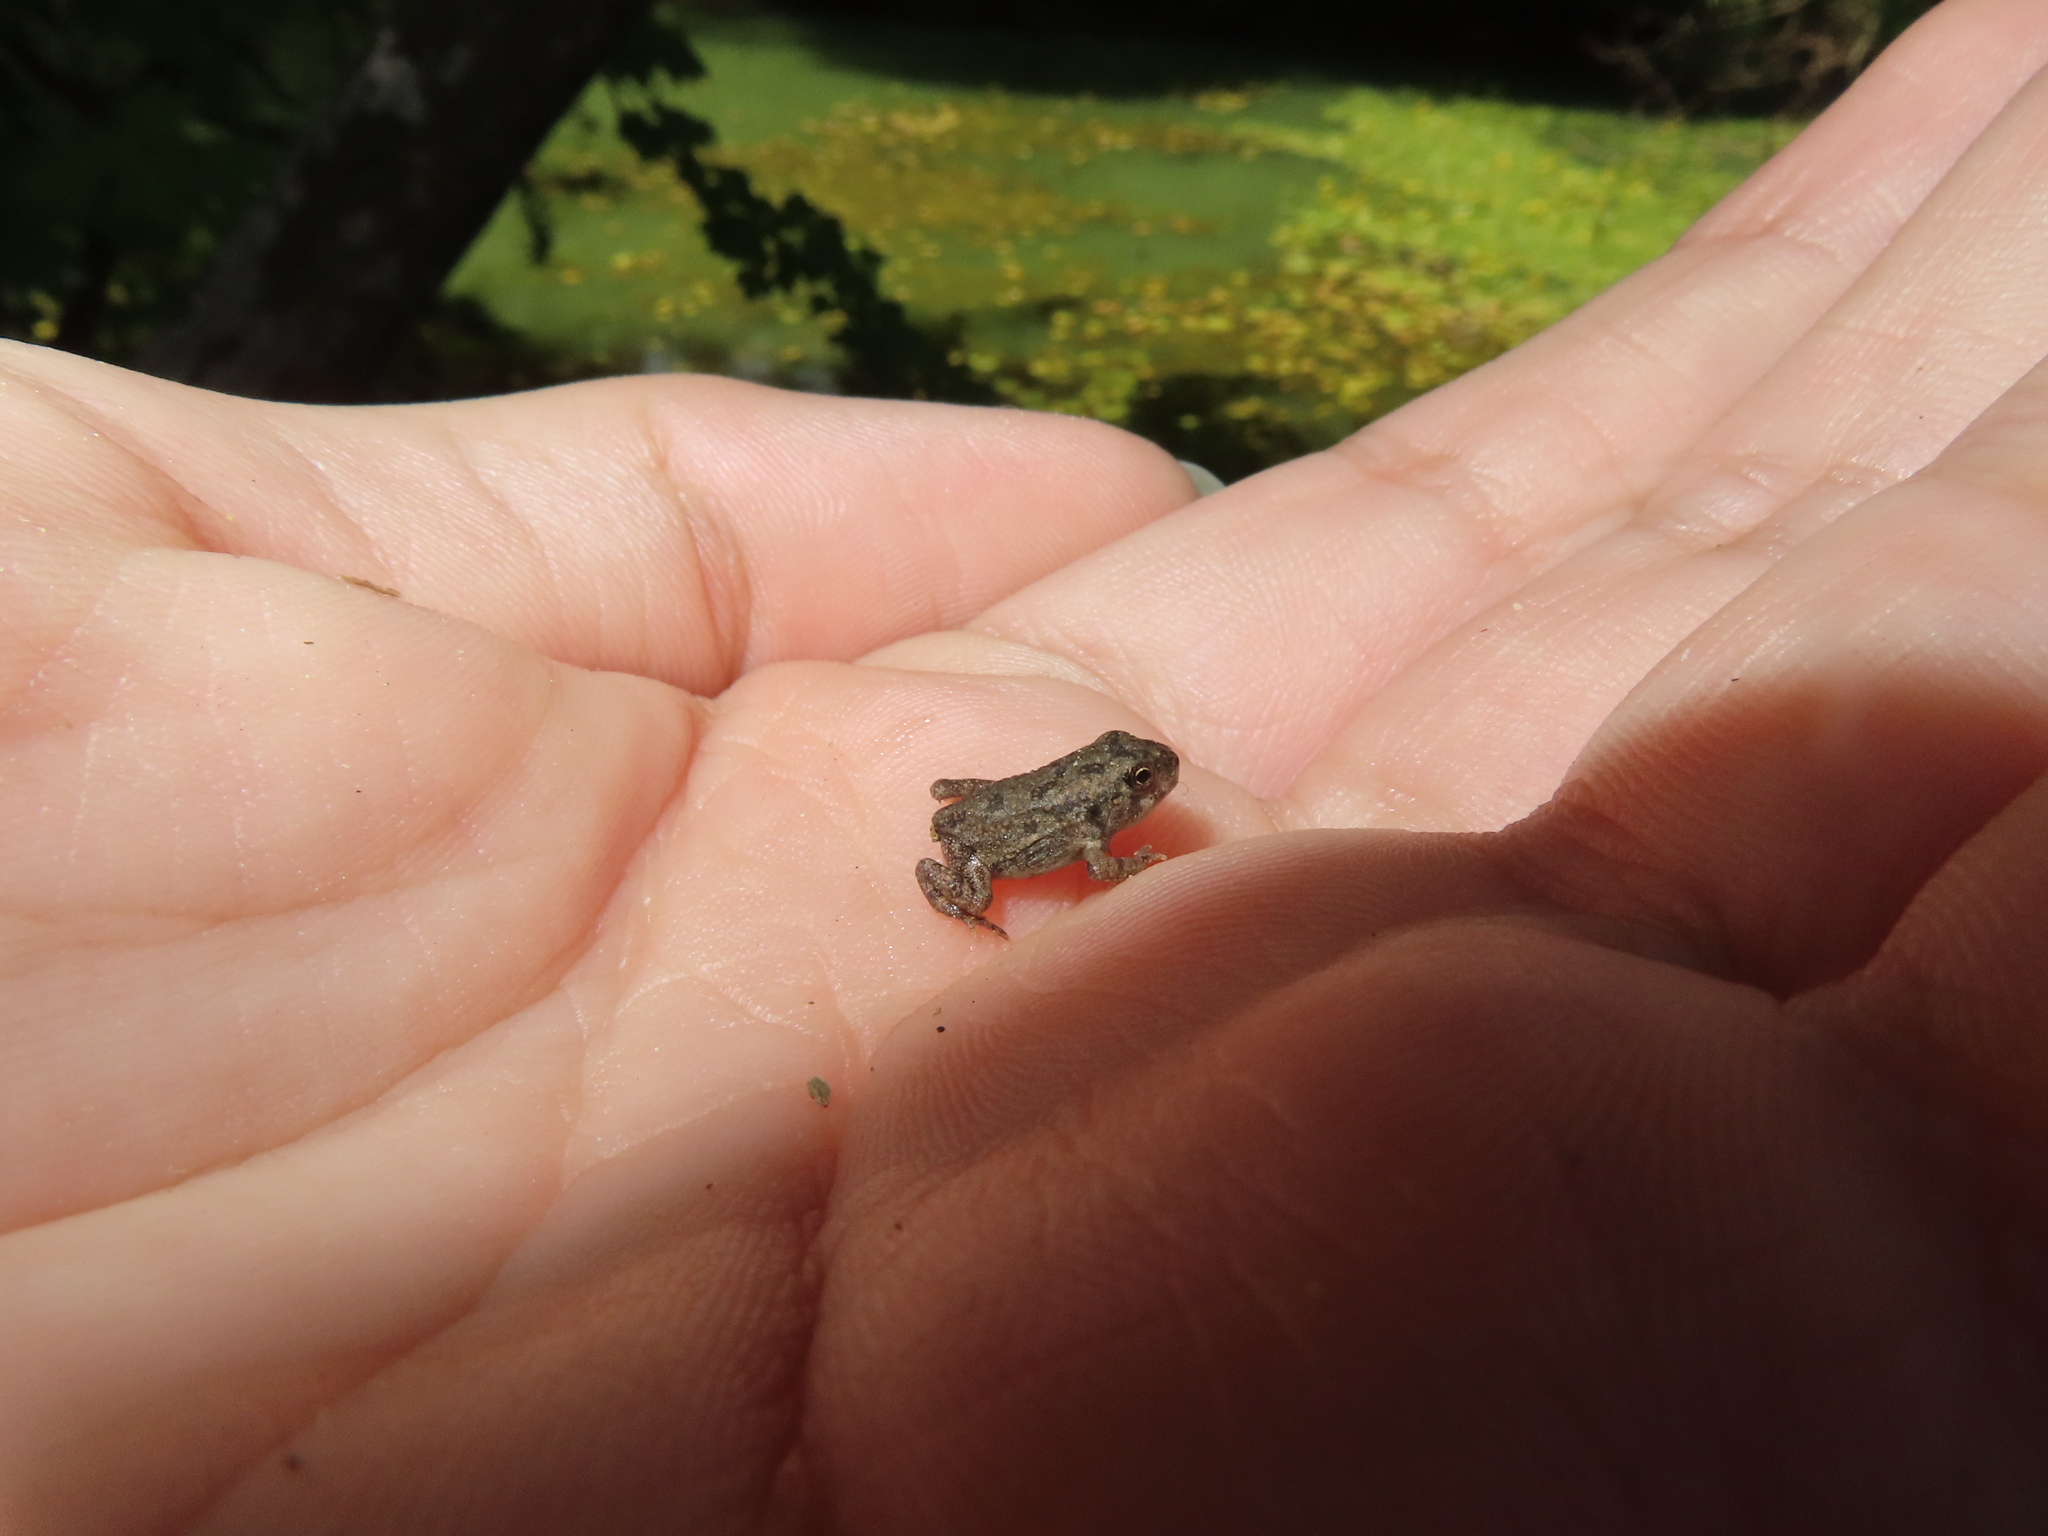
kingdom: Animalia
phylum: Chordata
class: Amphibia
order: Anura
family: Bufonidae
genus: Anaxyrus
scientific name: Anaxyrus fowleri
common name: Fowler's toad
